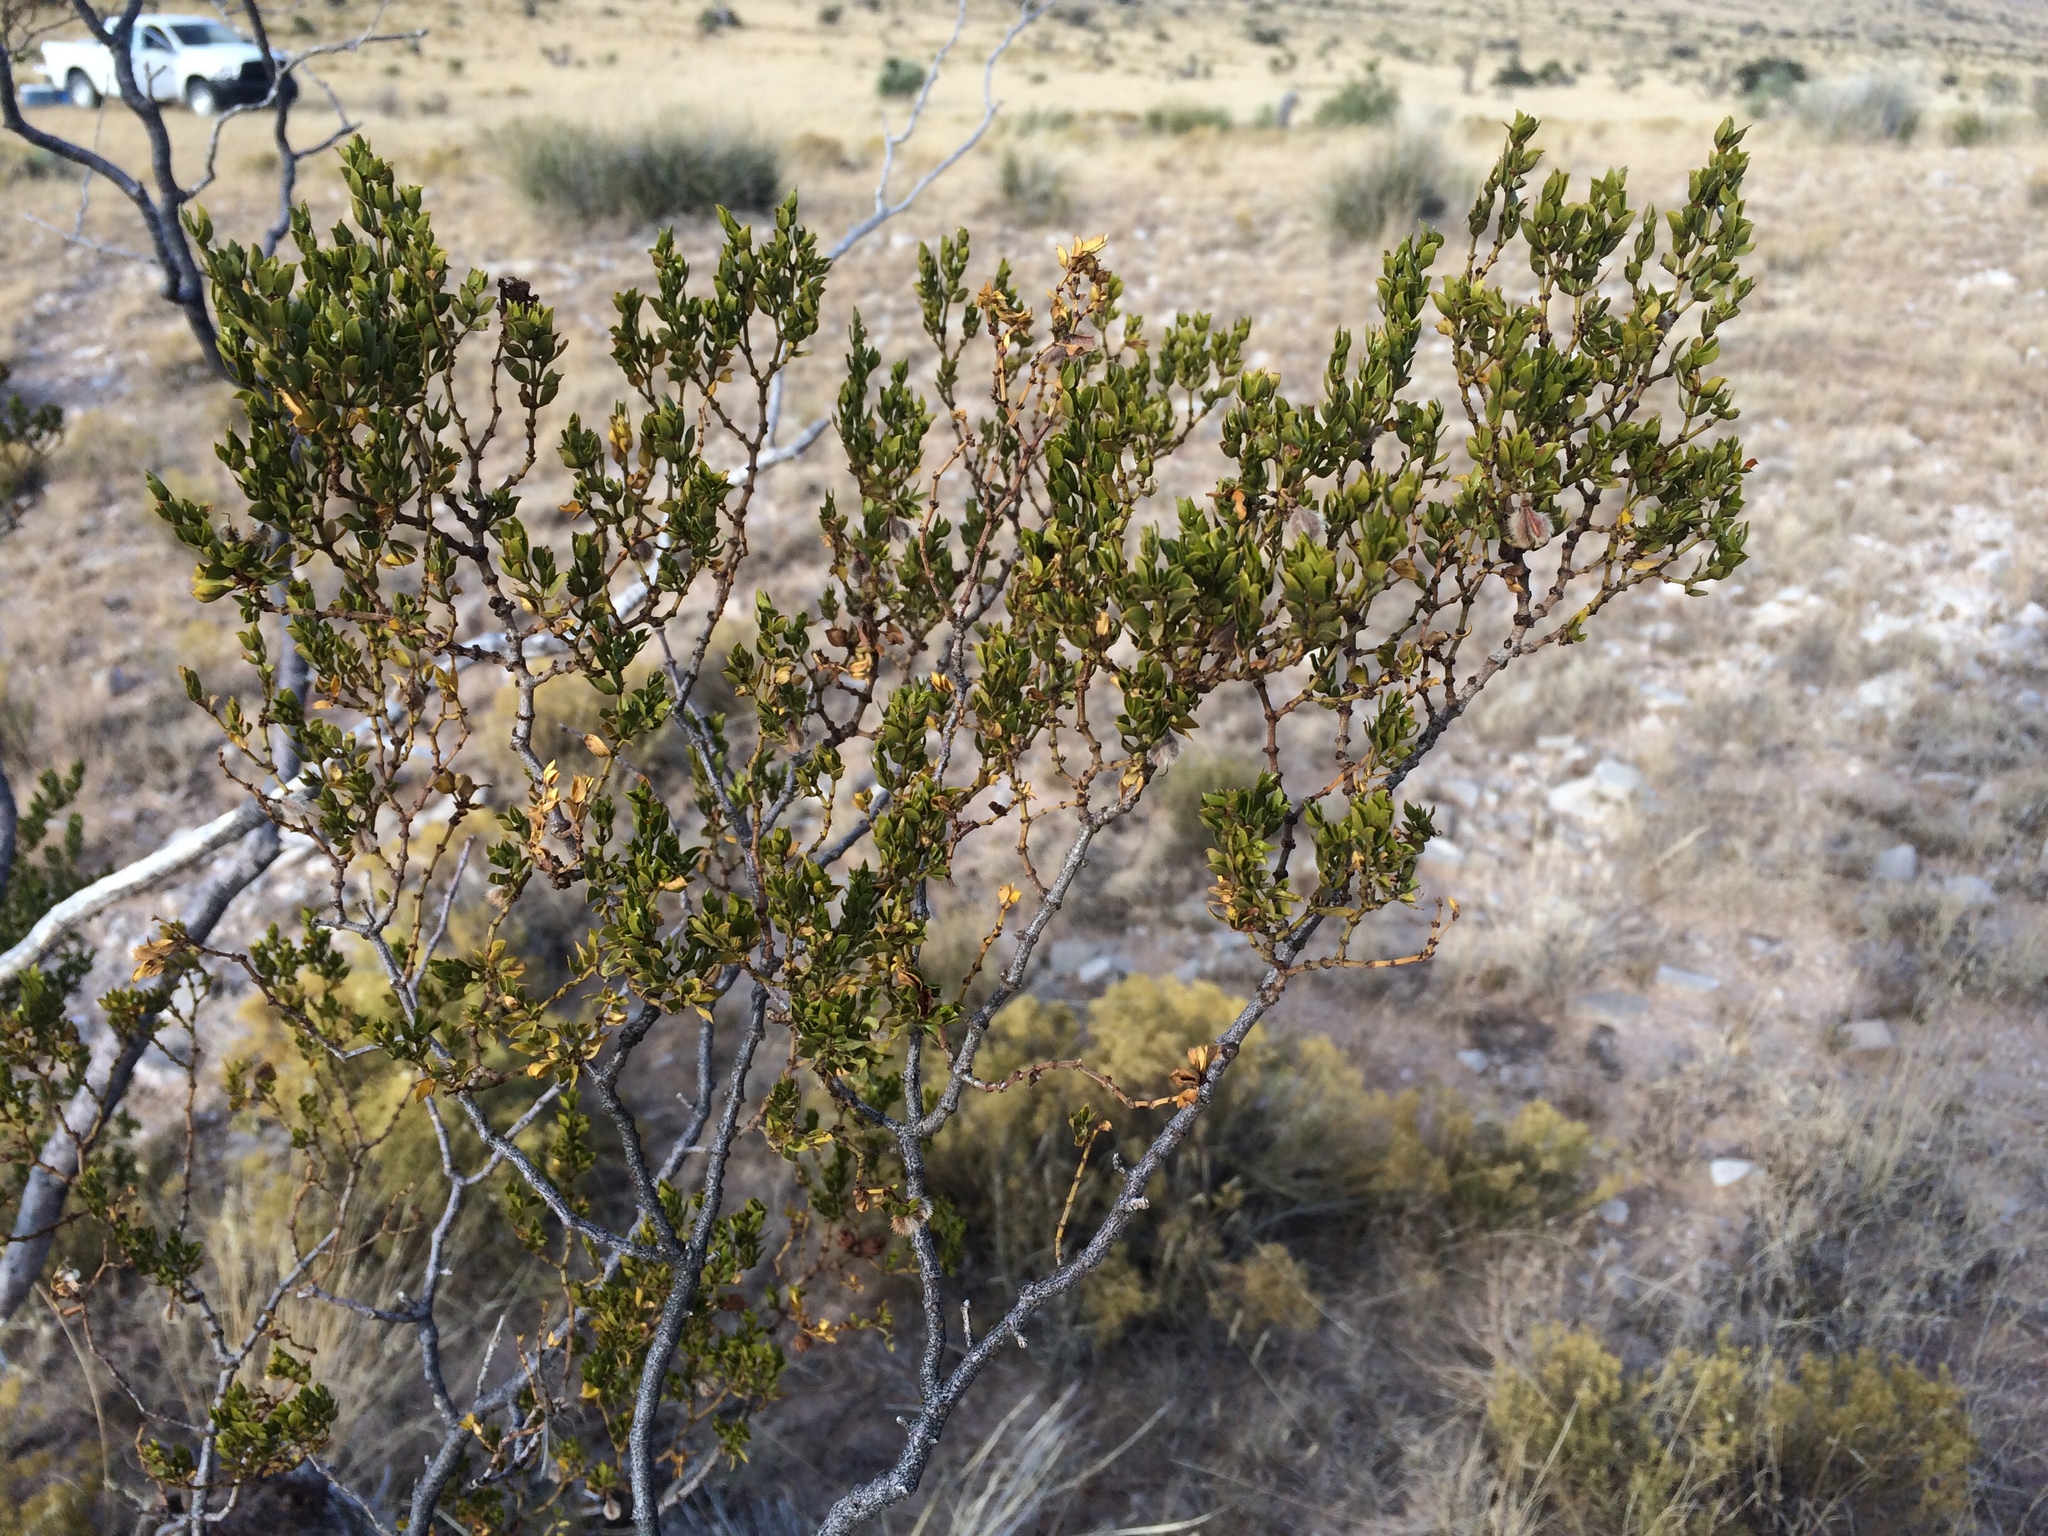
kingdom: Plantae
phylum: Tracheophyta
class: Magnoliopsida
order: Zygophyllales
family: Zygophyllaceae
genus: Larrea
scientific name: Larrea tridentata
